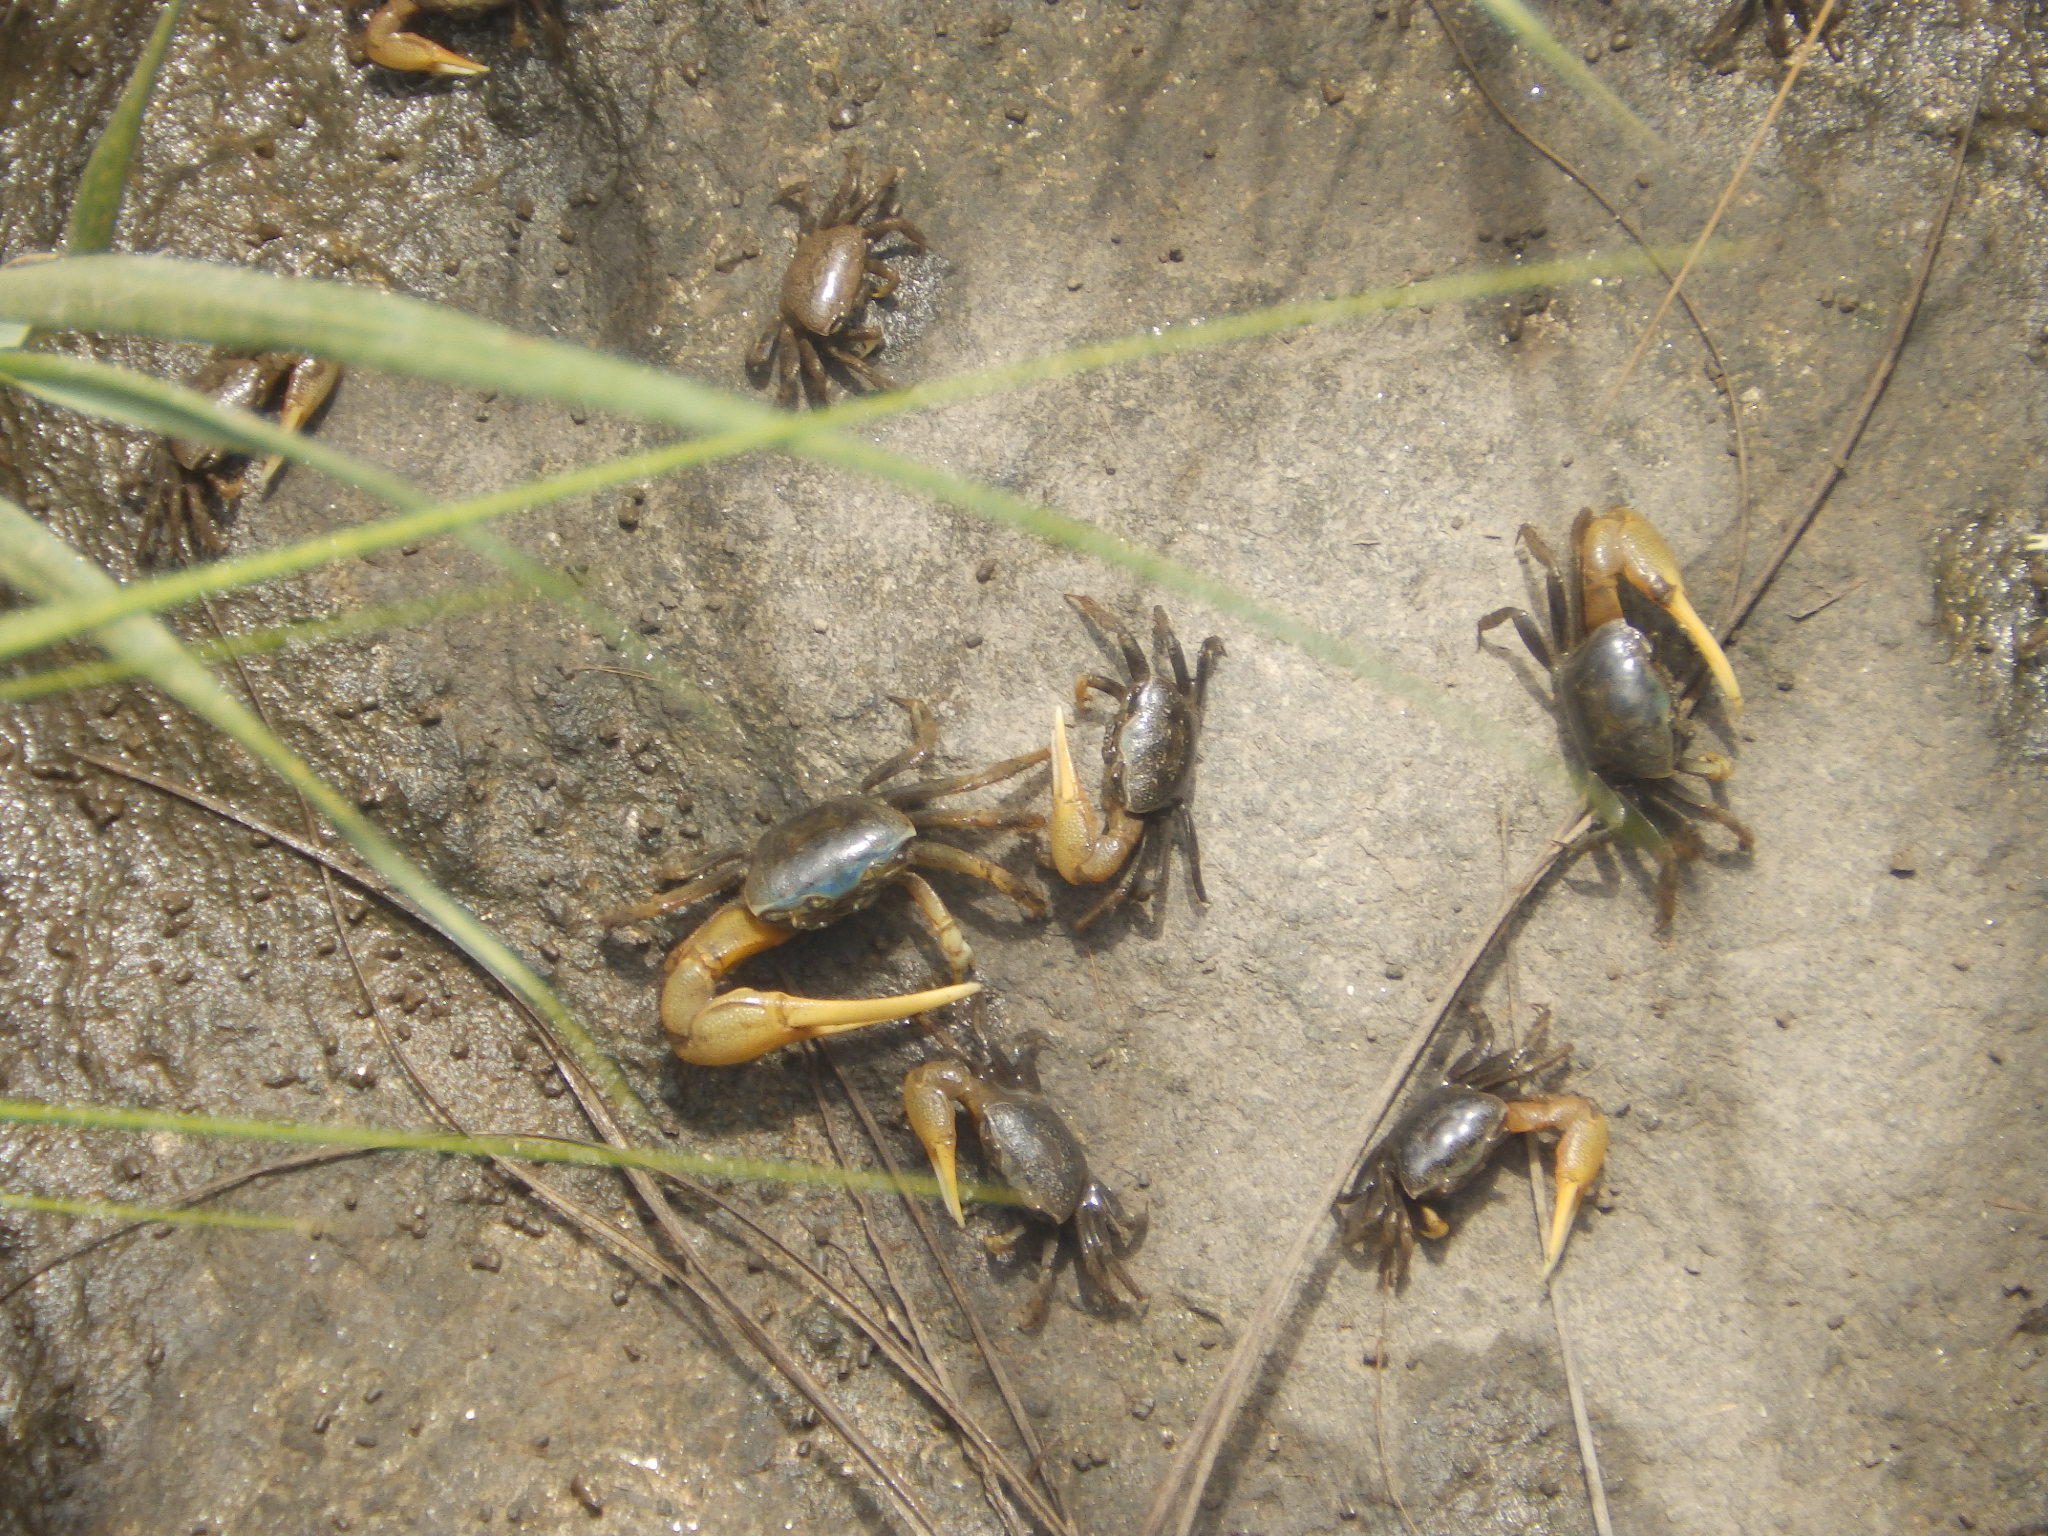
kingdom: Animalia
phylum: Arthropoda
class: Malacostraca
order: Decapoda
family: Ocypodidae
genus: Minuca
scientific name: Minuca pugnax
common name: Mud fiddler crab
